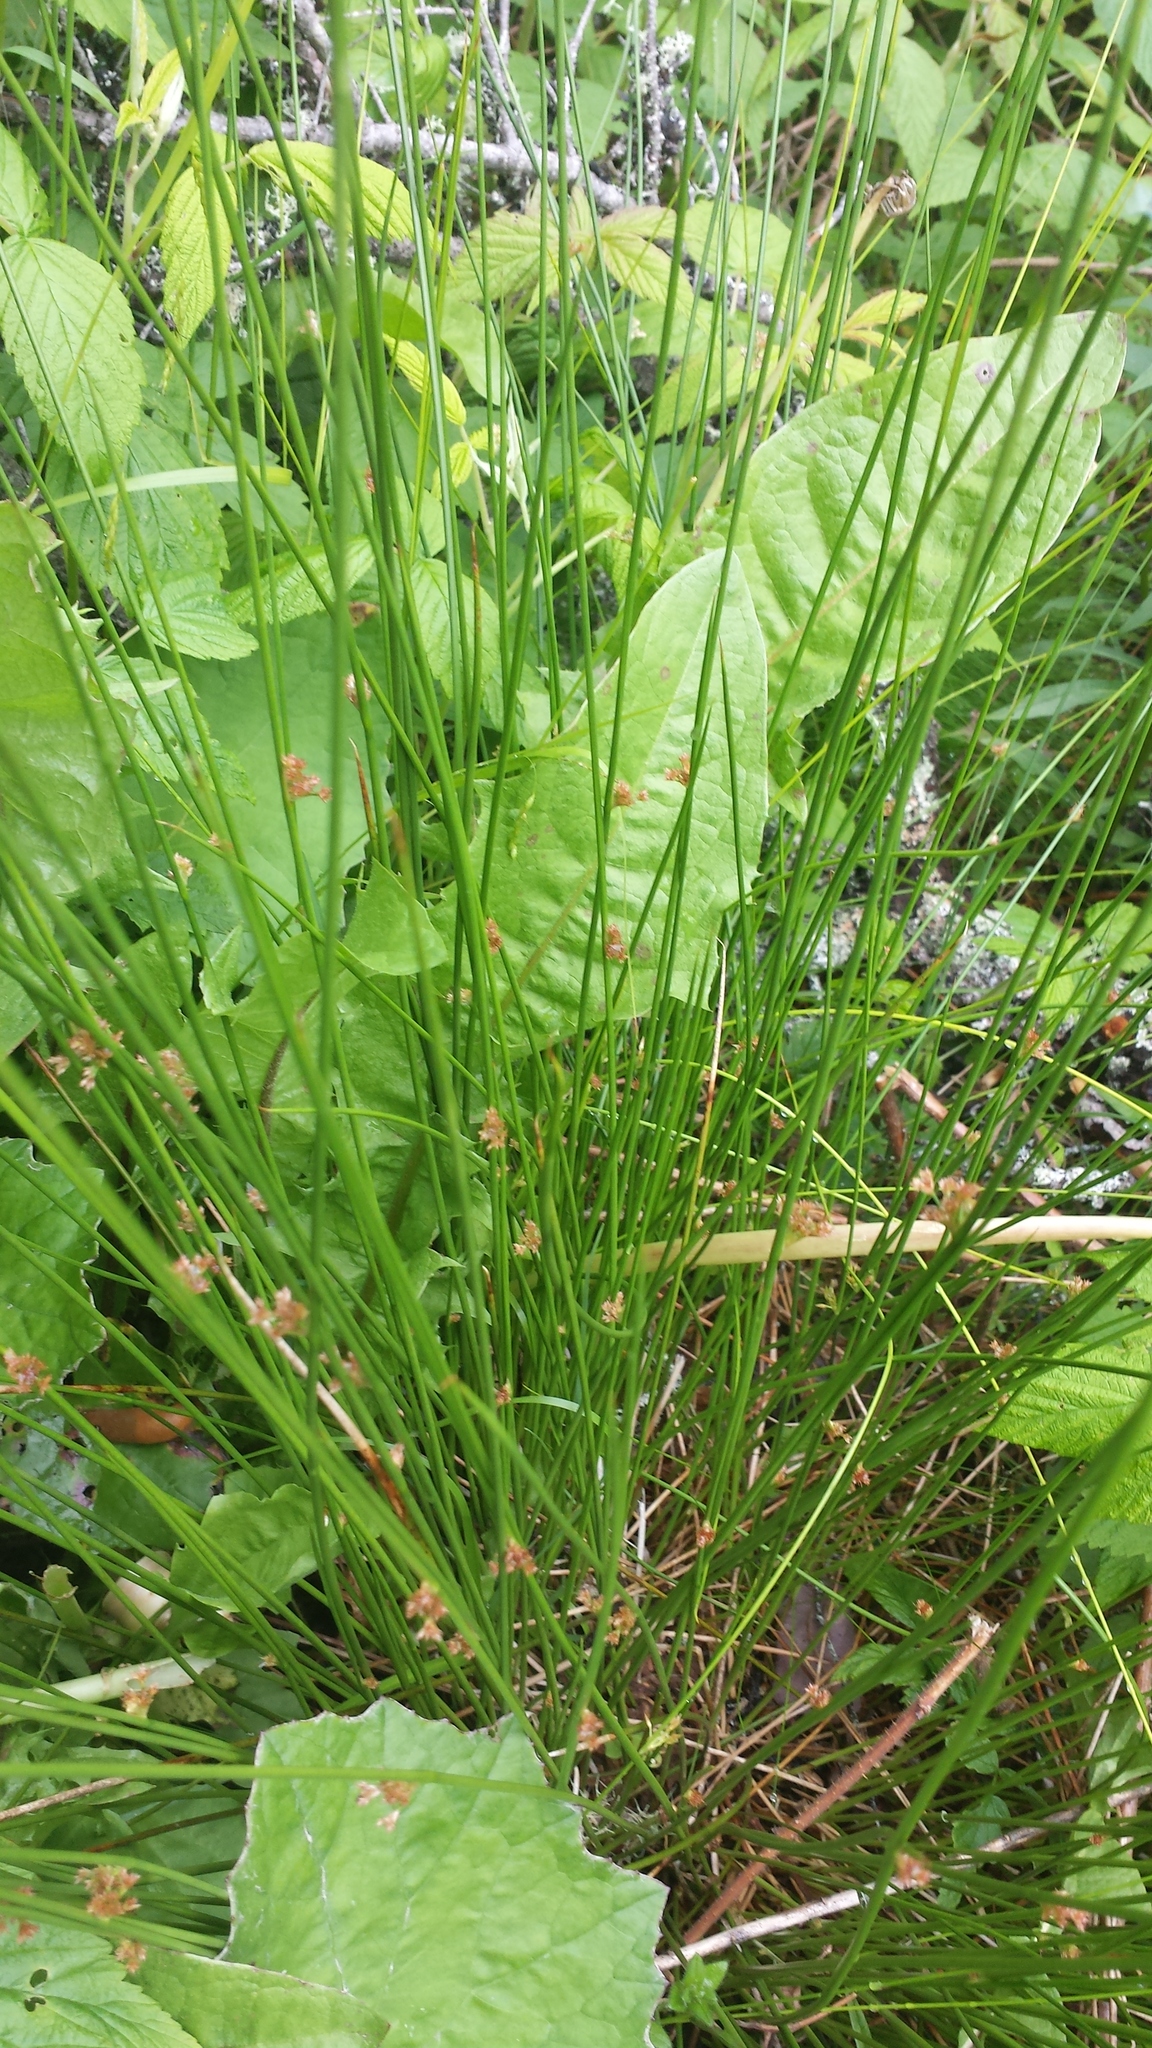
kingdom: Plantae
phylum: Tracheophyta
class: Liliopsida
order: Poales
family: Juncaceae
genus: Juncus
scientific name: Juncus effusus
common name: Soft rush
